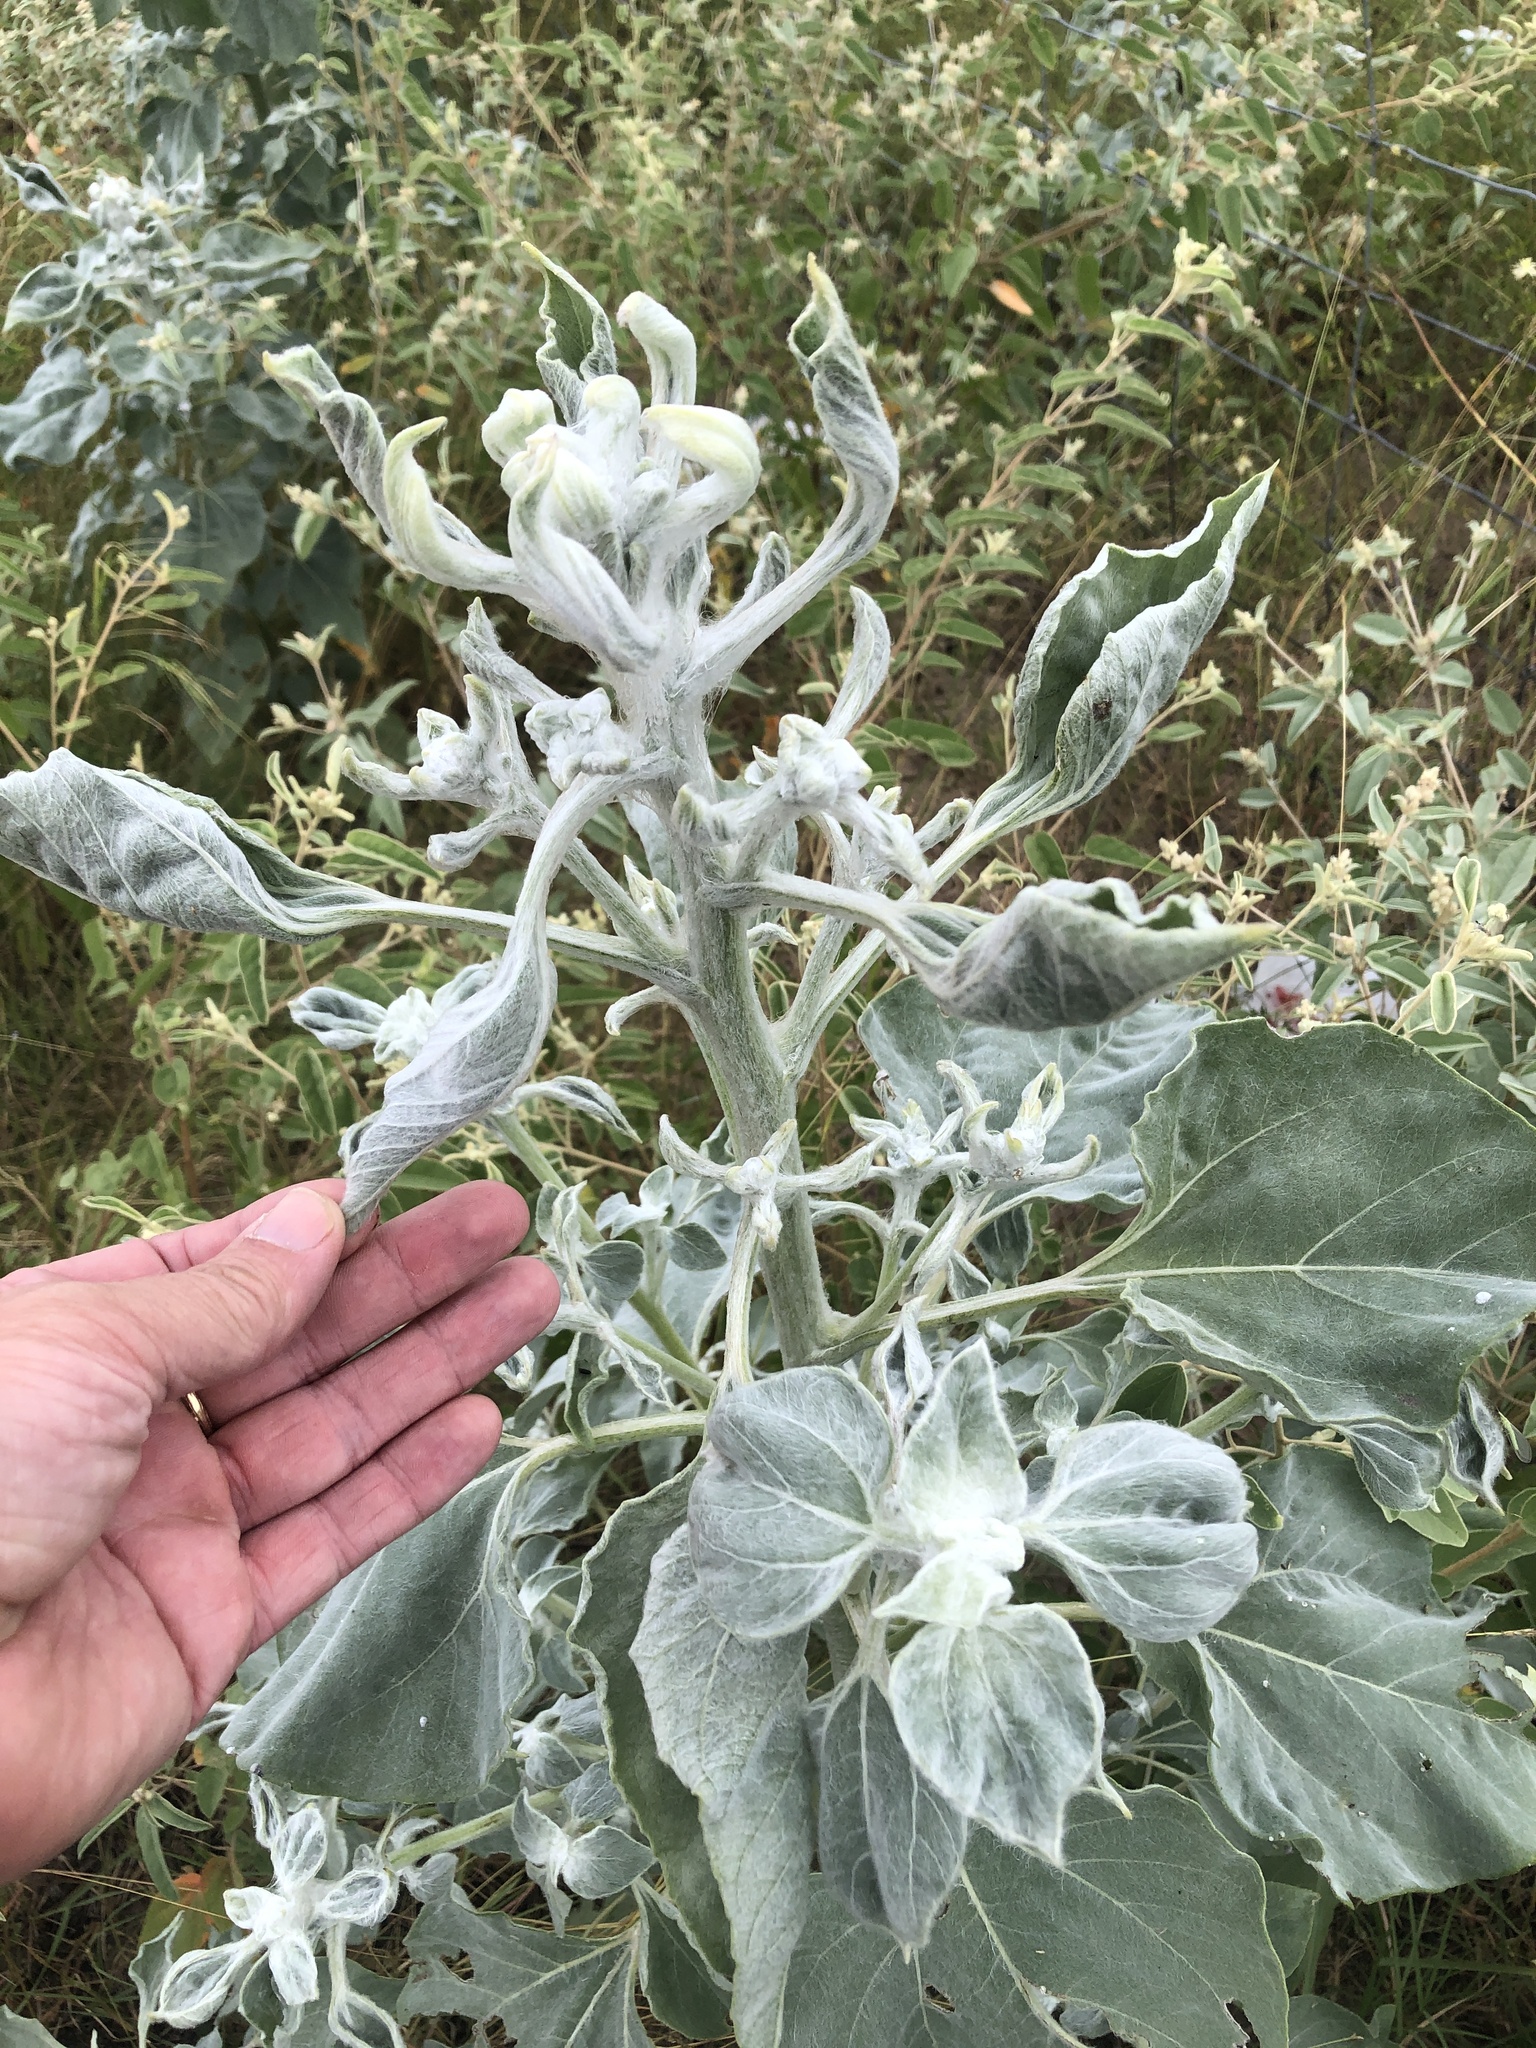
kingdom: Plantae
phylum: Tracheophyta
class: Magnoliopsida
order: Asterales
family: Asteraceae
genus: Helianthus
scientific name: Helianthus argophyllus
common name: Silverleaf sunflower
